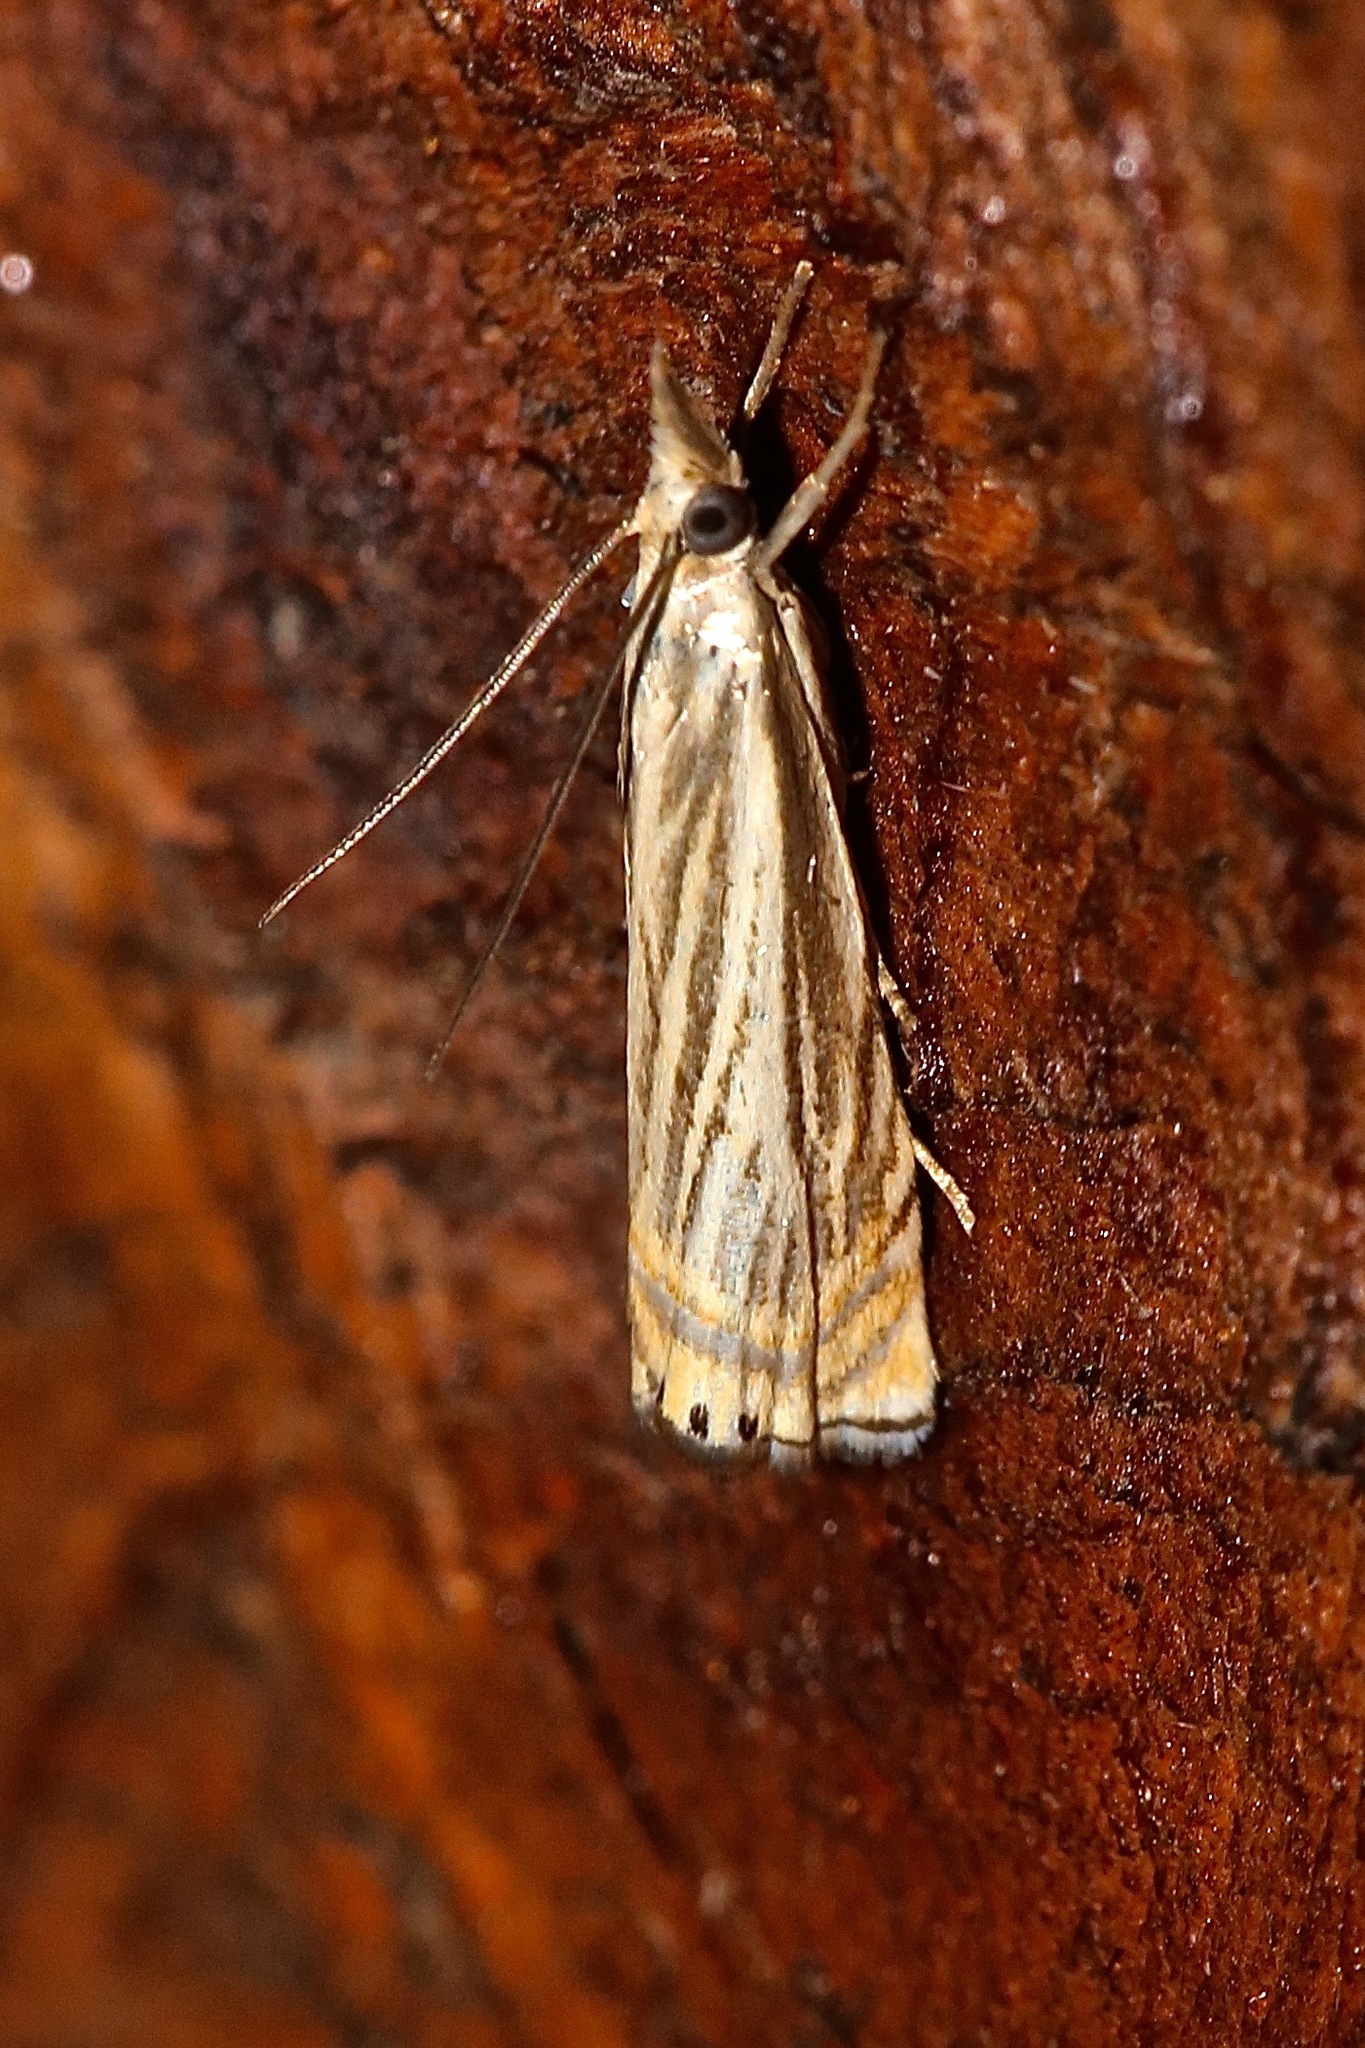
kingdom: Animalia
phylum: Arthropoda
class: Insecta
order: Lepidoptera
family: Crambidae
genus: Chrysoteuchia
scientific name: Chrysoteuchia topiarius
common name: Topiary grass-veneer
